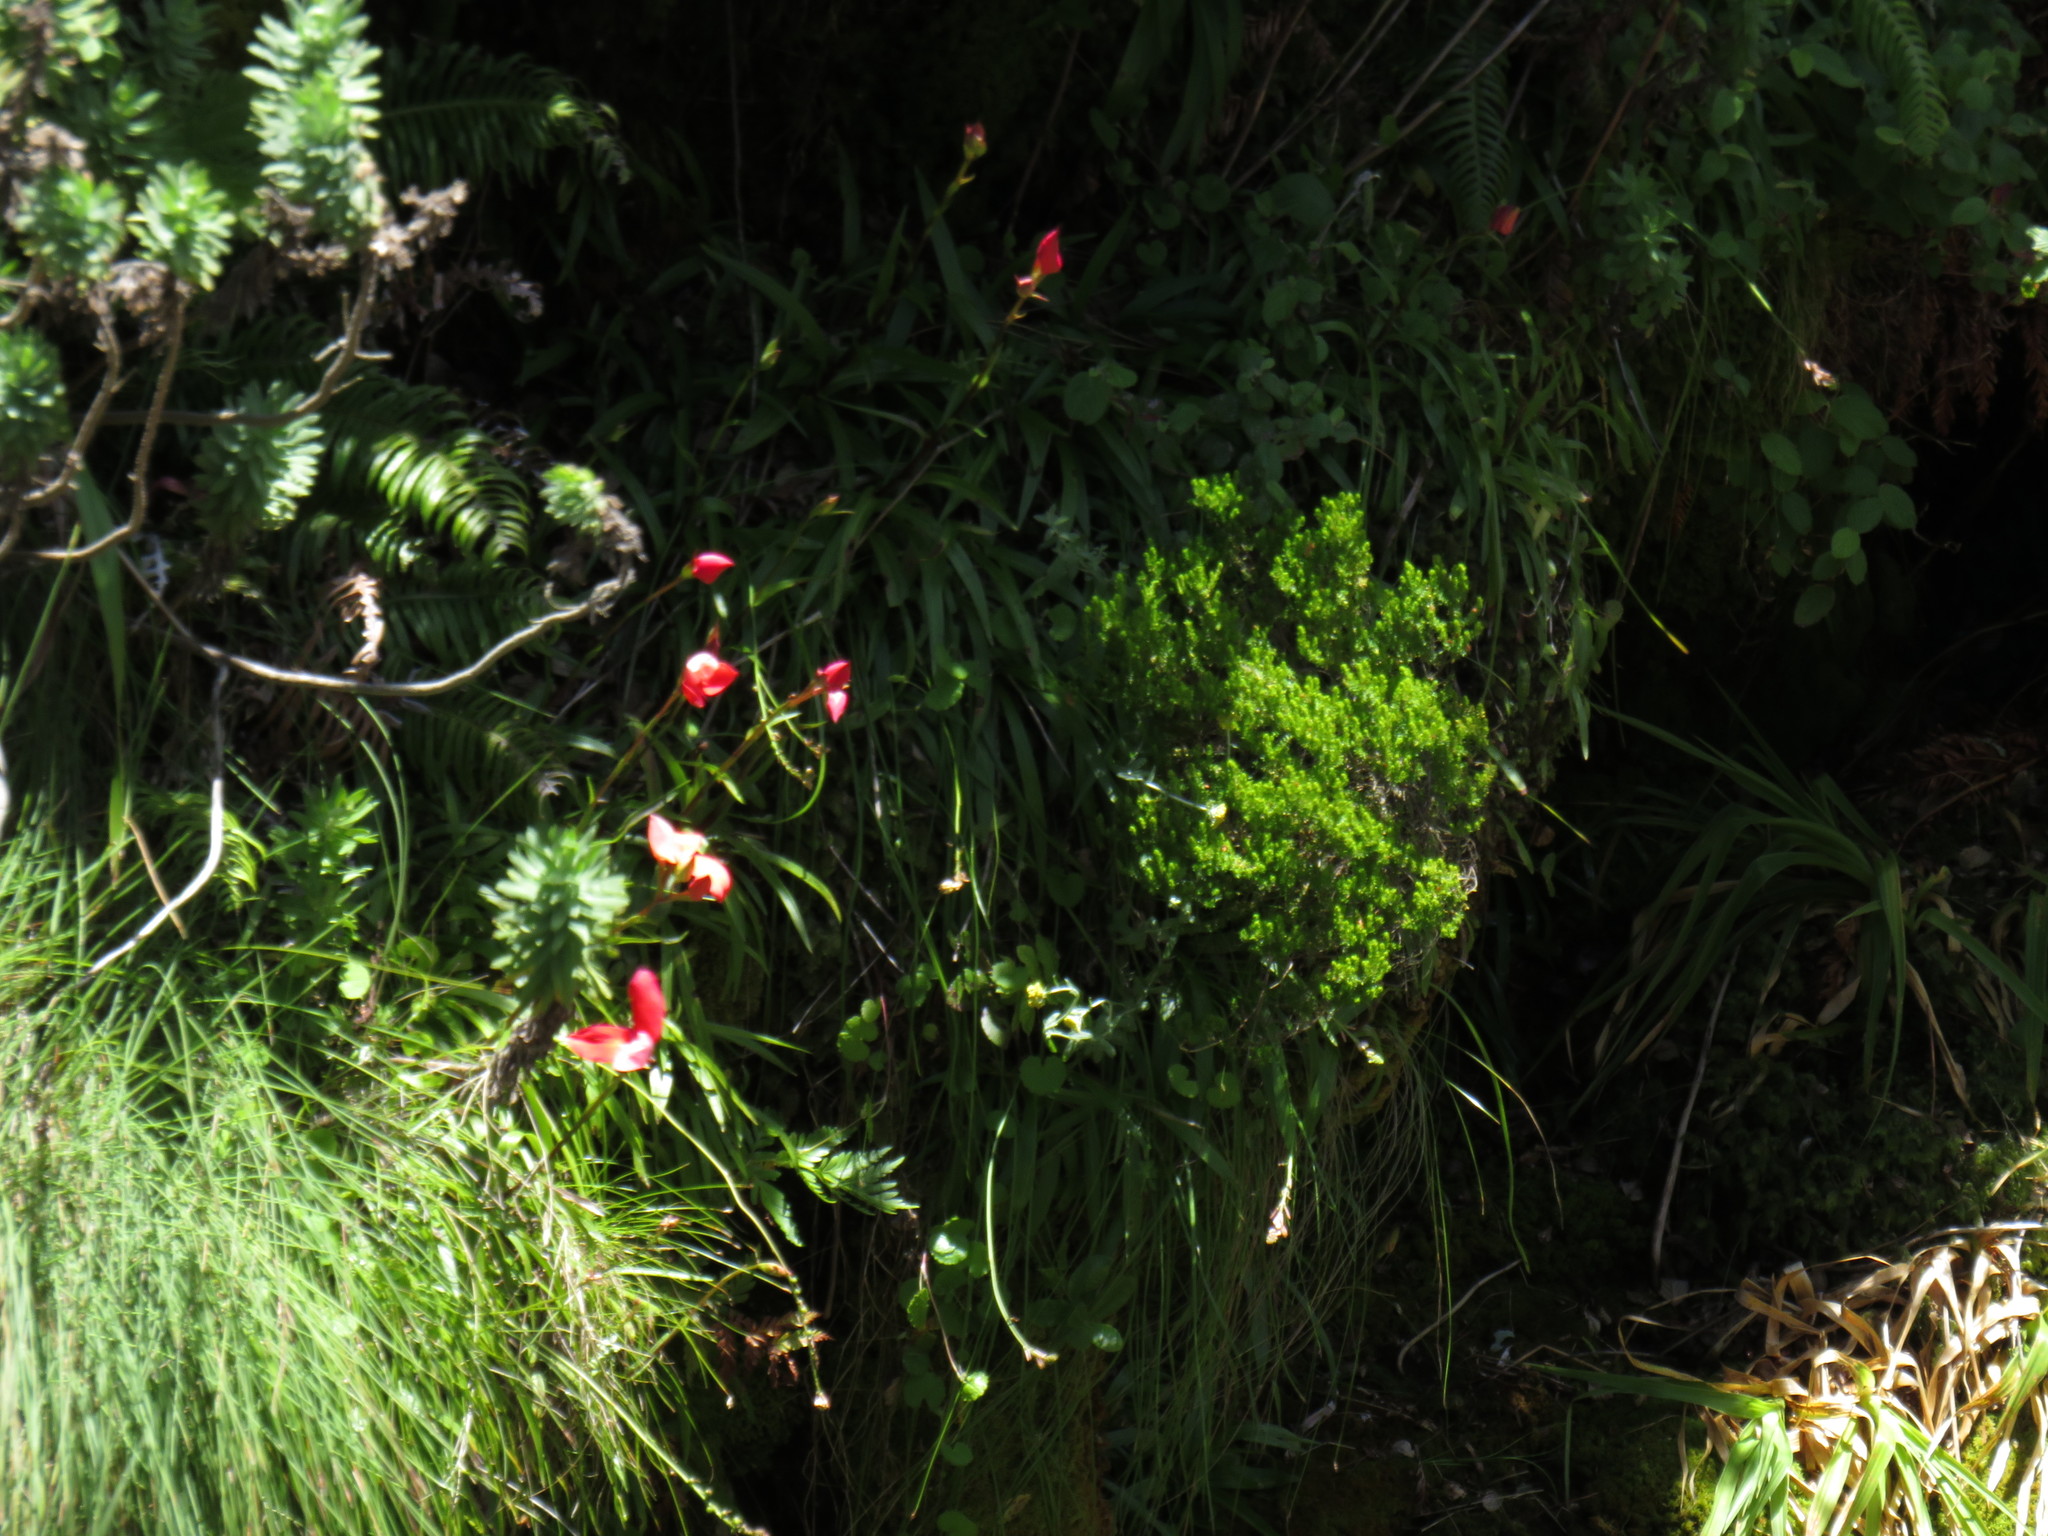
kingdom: Plantae
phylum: Tracheophyta
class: Liliopsida
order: Asparagales
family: Orchidaceae
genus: Disa
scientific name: Disa uniflora
